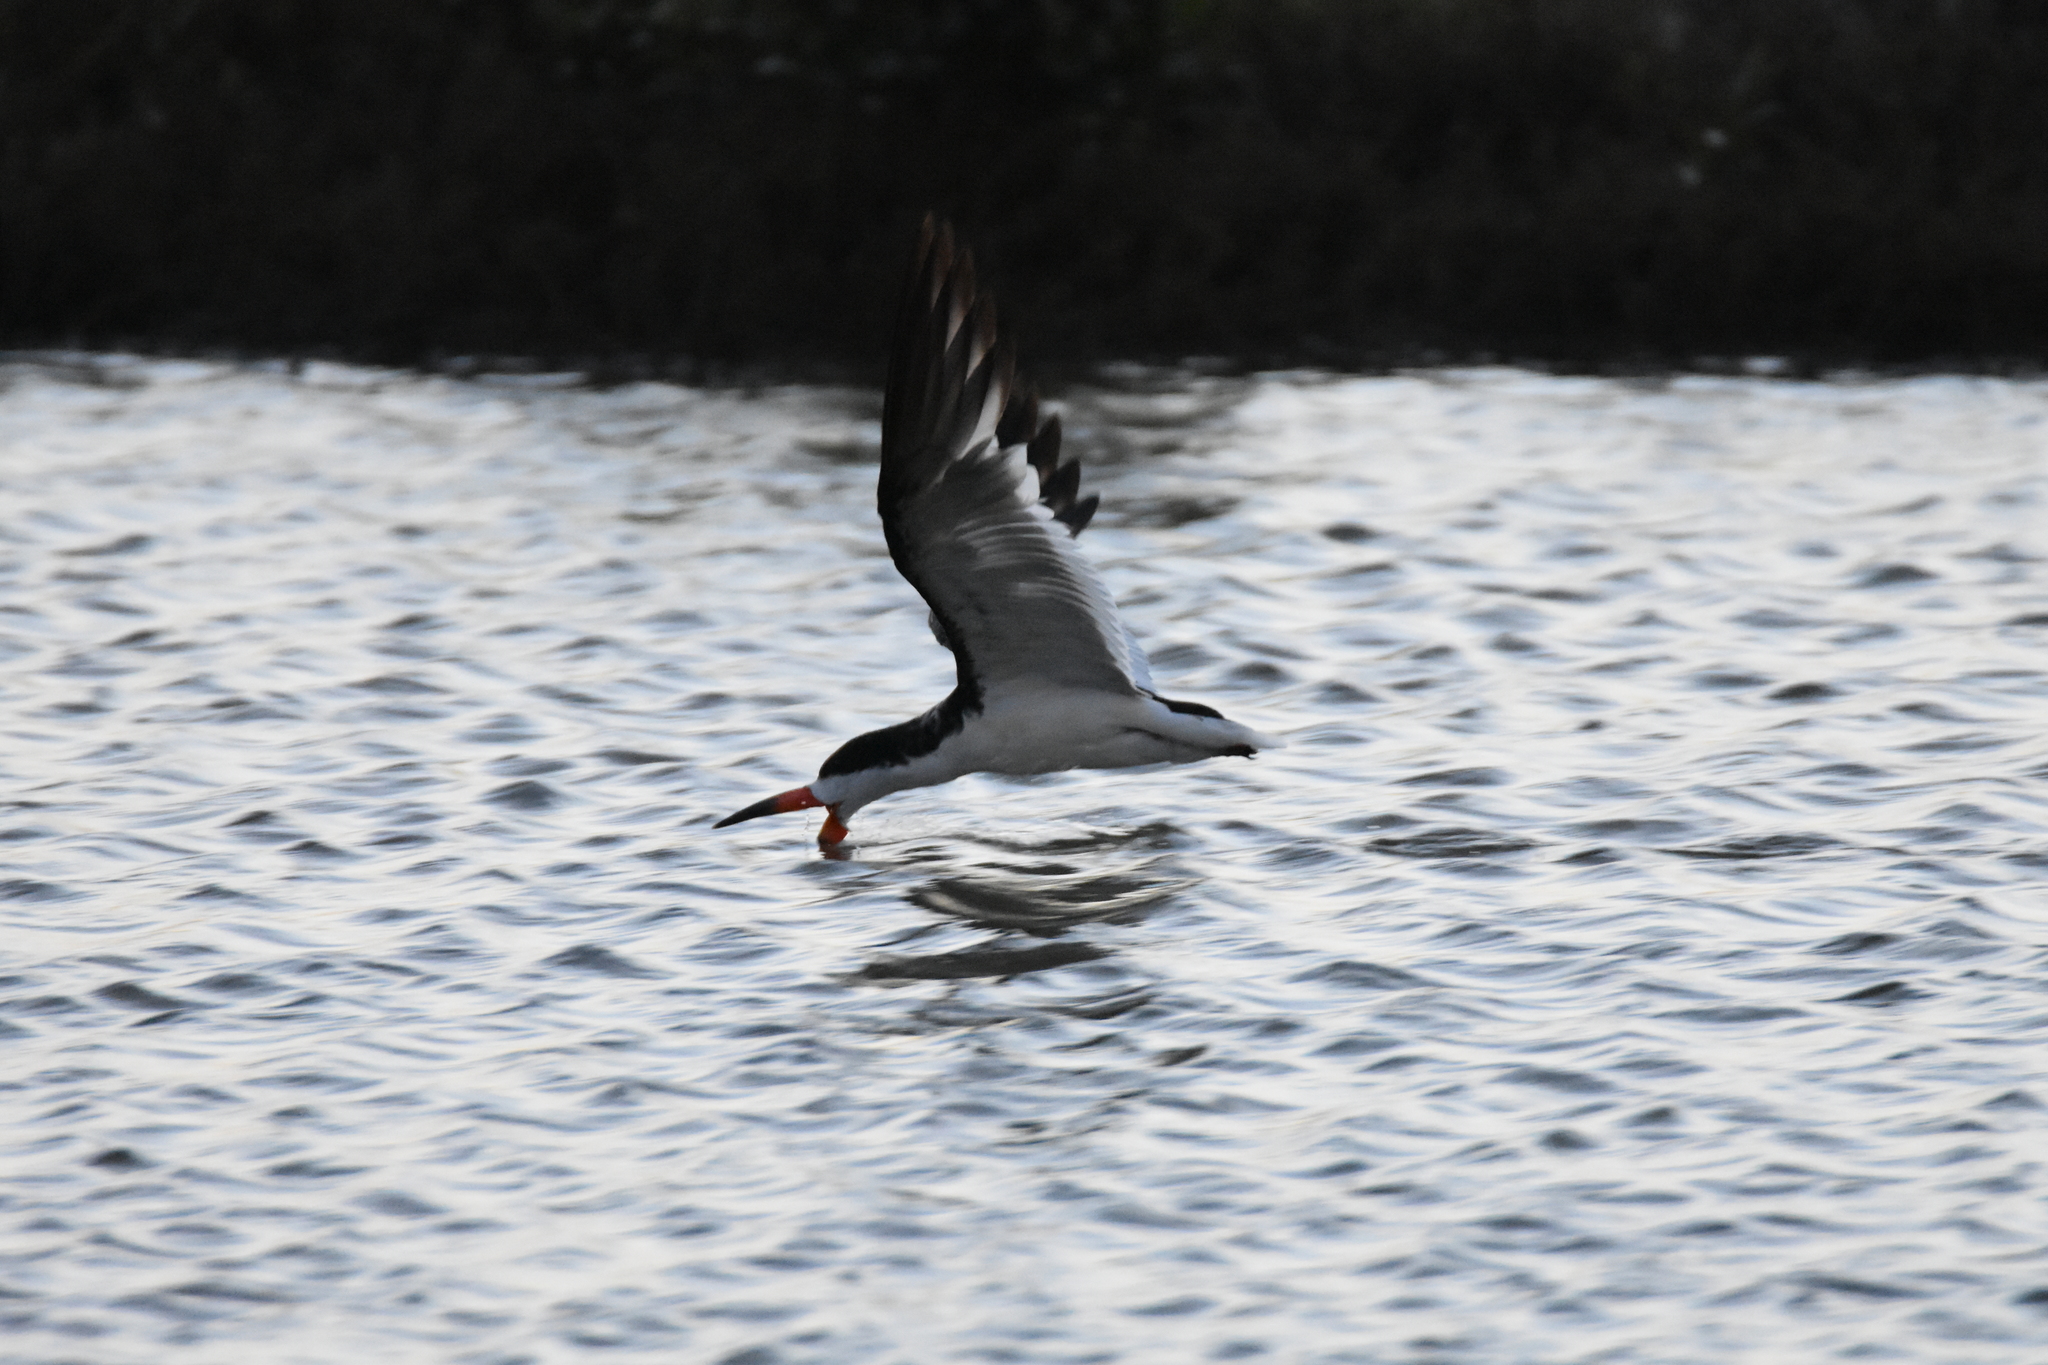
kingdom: Animalia
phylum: Chordata
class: Aves
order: Charadriiformes
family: Laridae
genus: Rynchops
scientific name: Rynchops niger
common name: Black skimmer
